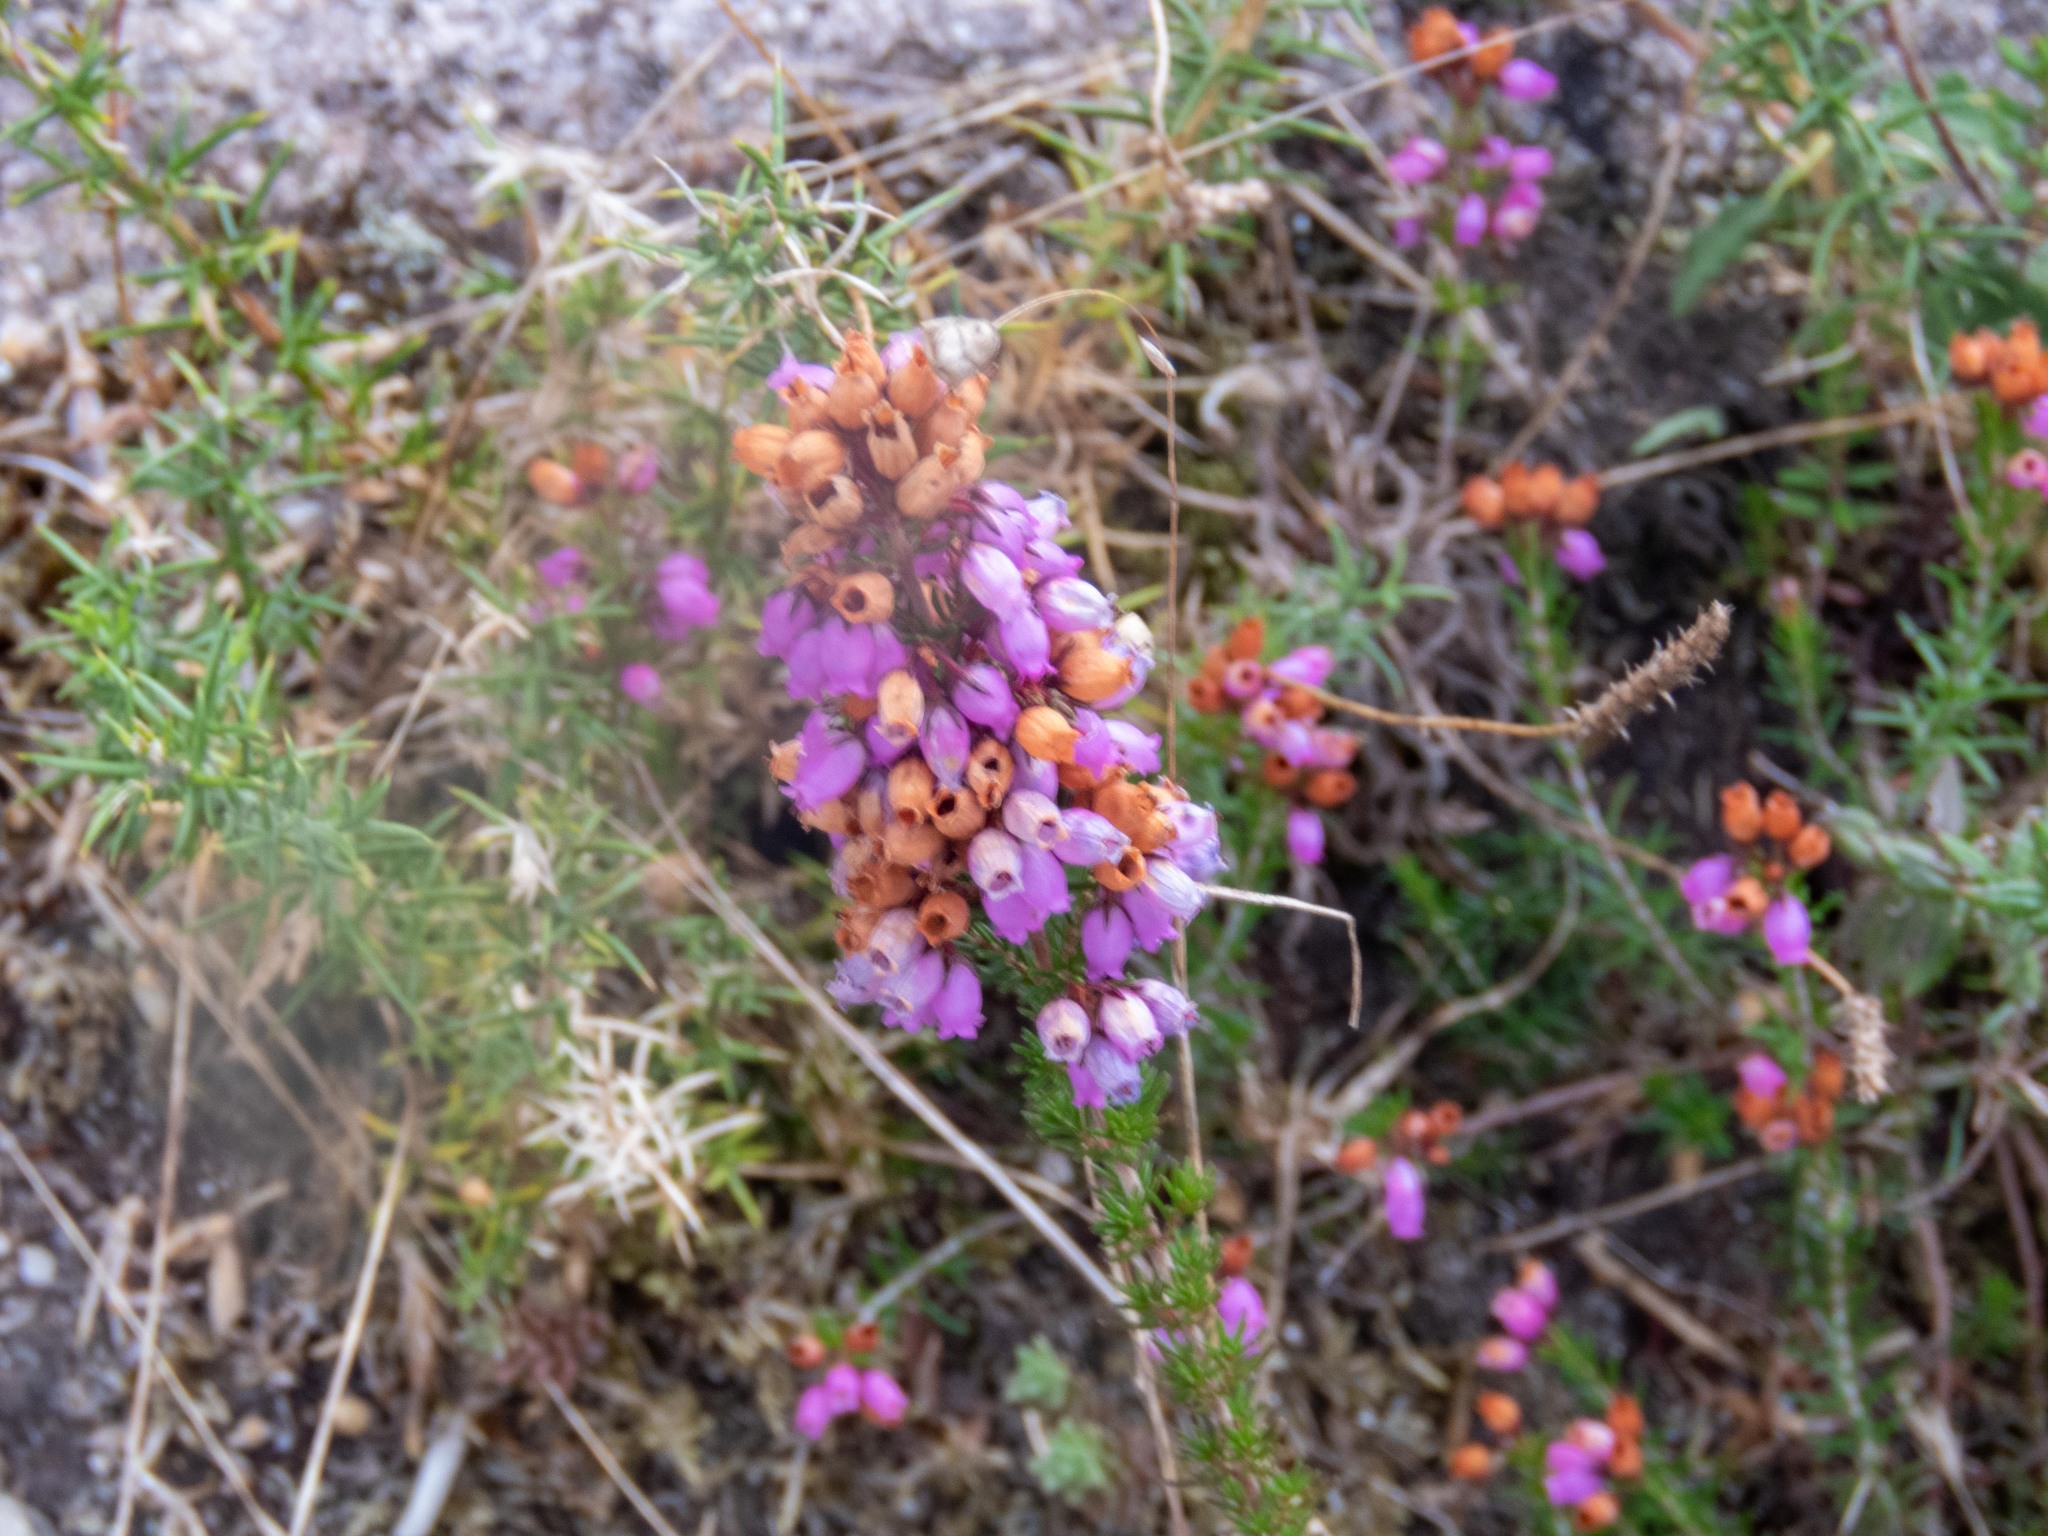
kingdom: Plantae
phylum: Tracheophyta
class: Magnoliopsida
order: Ericales
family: Ericaceae
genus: Erica
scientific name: Erica cinerea
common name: Bell heather
